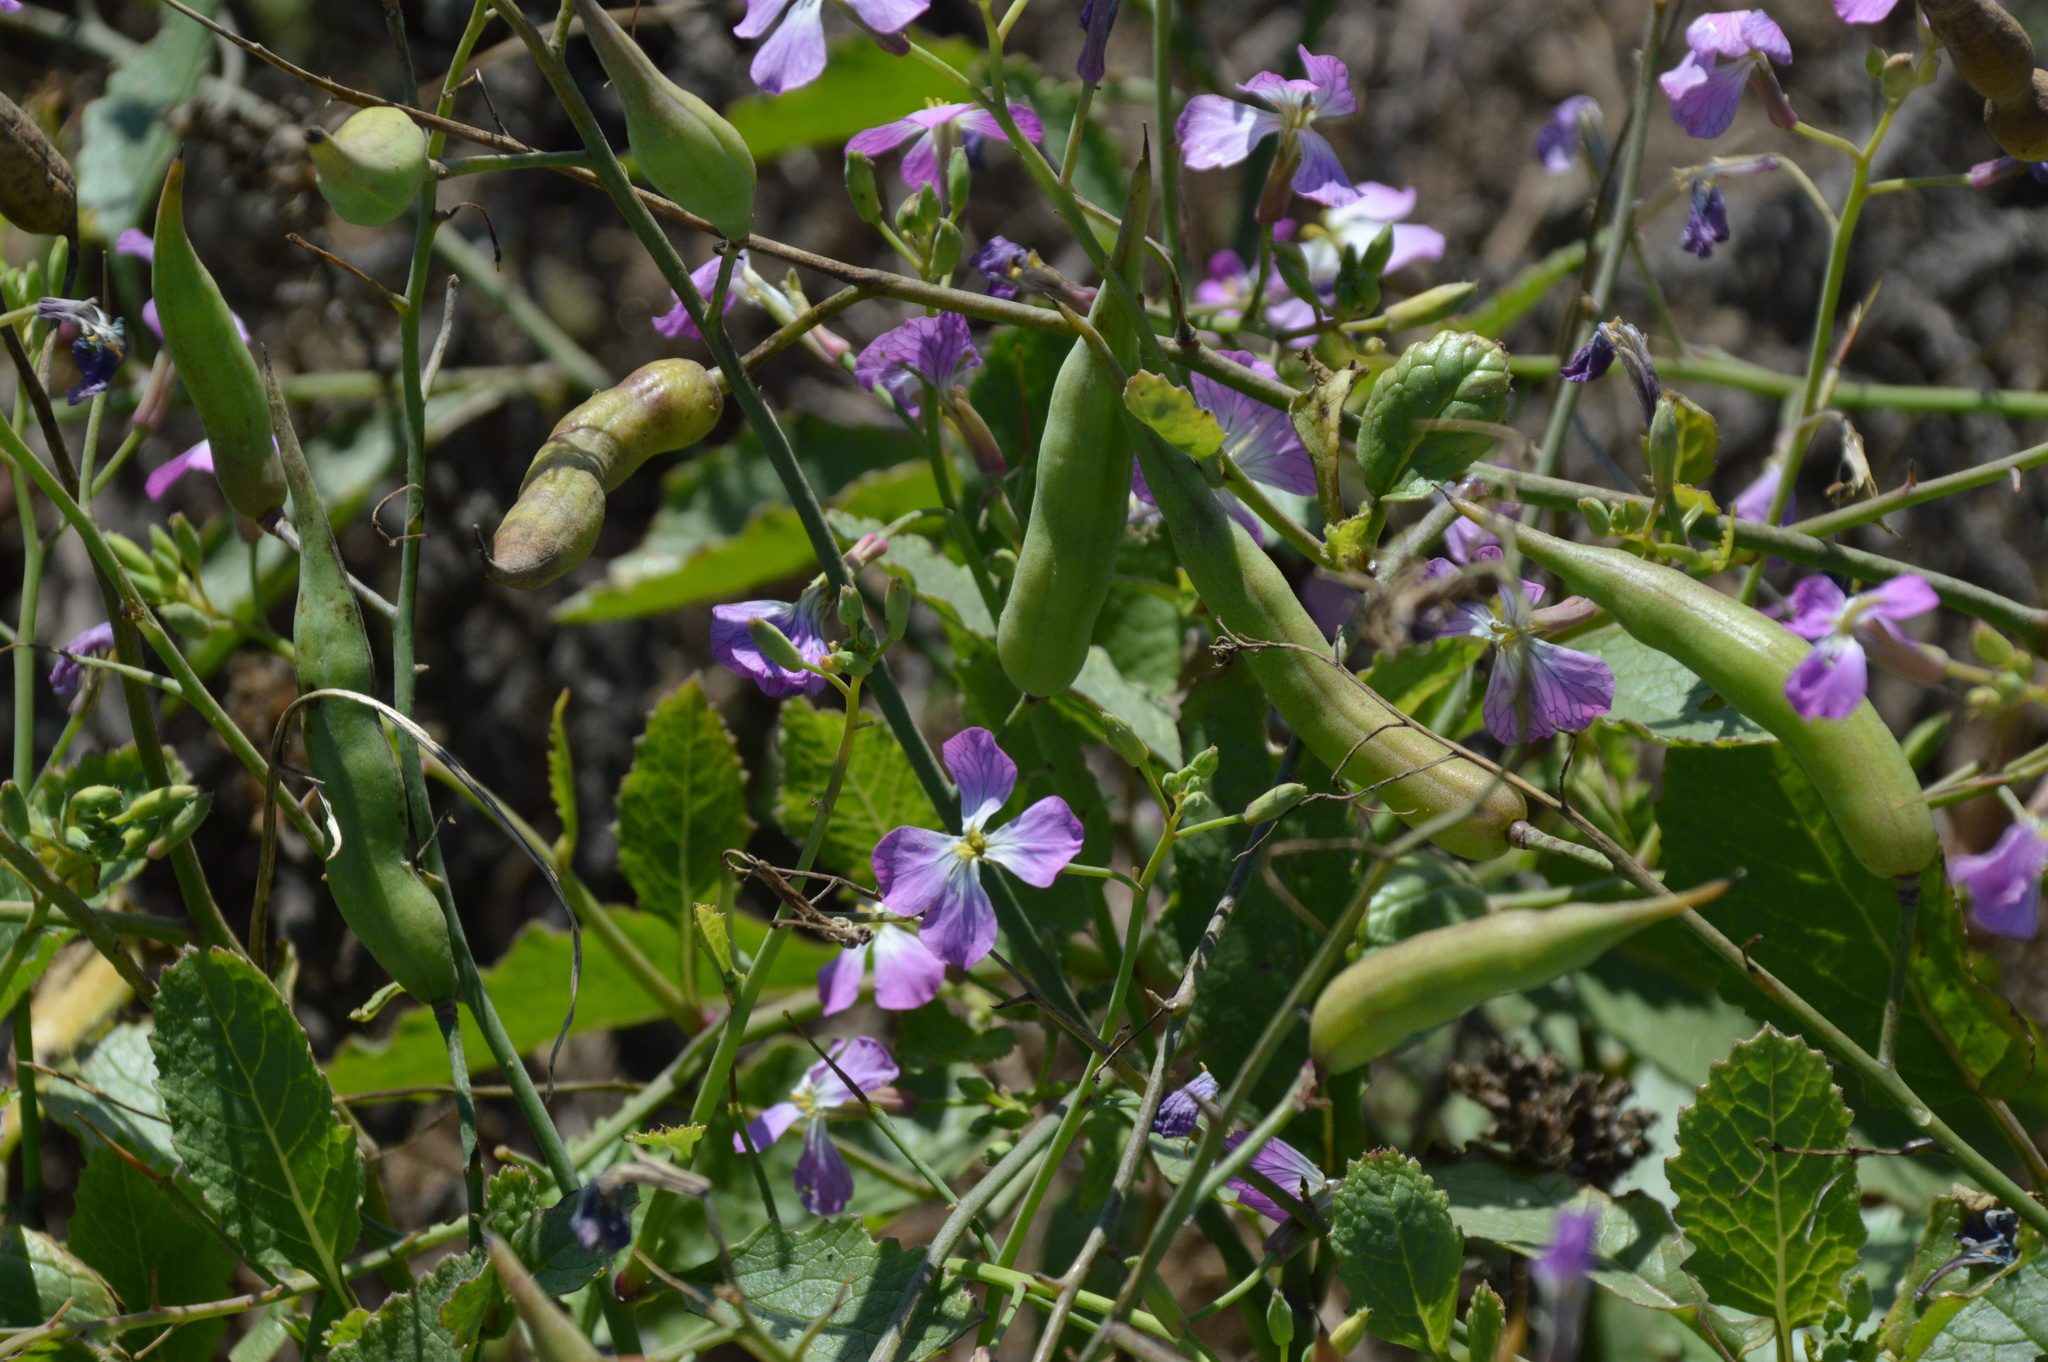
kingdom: Plantae
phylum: Tracheophyta
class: Magnoliopsida
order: Brassicales
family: Brassicaceae
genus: Raphanus
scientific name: Raphanus sativus
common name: Cultivated radish
